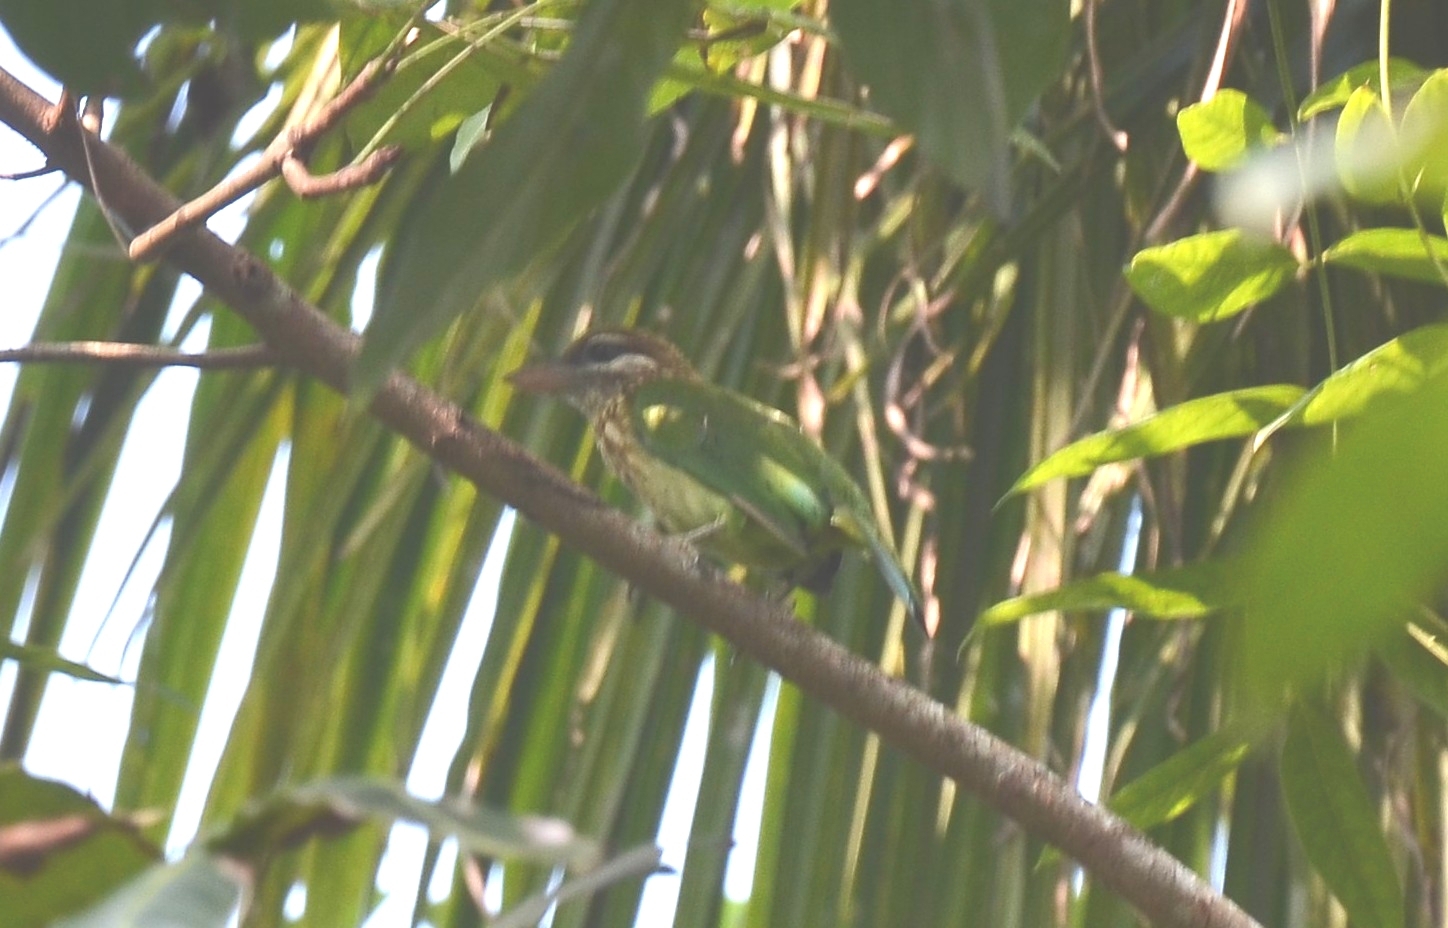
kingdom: Animalia
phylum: Chordata
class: Aves
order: Piciformes
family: Megalaimidae
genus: Psilopogon
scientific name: Psilopogon viridis
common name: White-cheeked barbet
